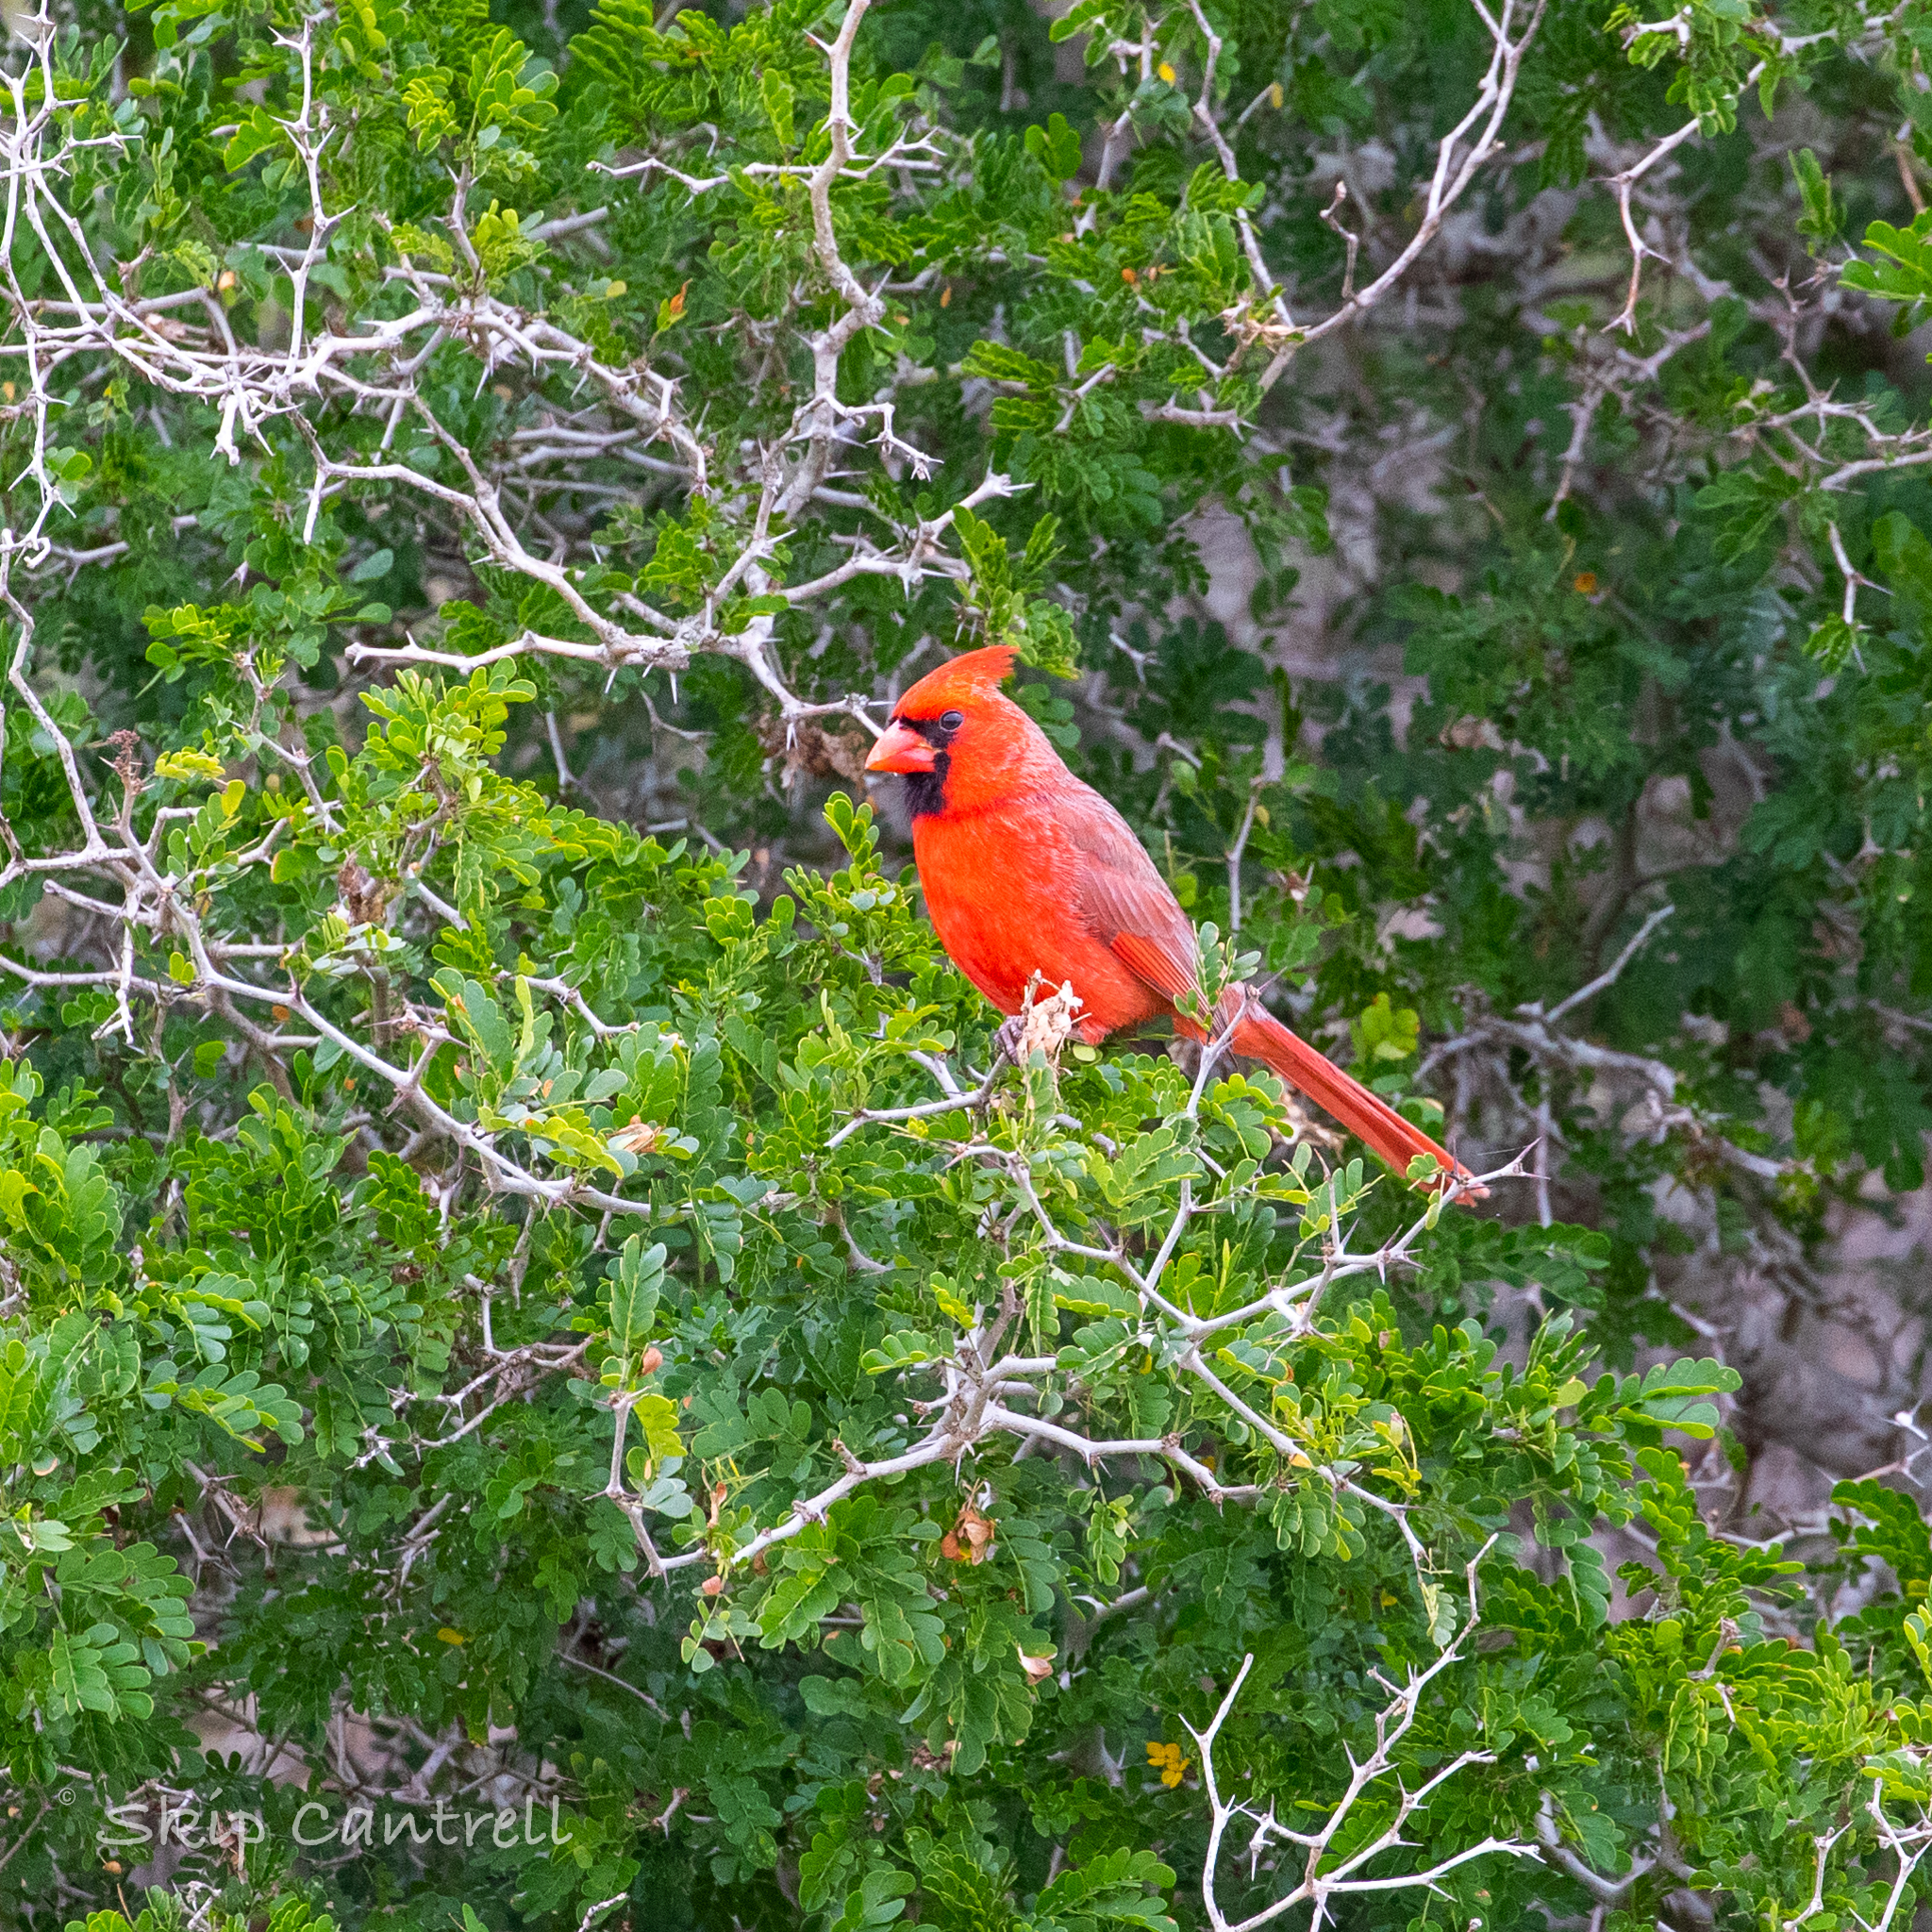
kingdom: Animalia
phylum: Chordata
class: Aves
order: Passeriformes
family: Cardinalidae
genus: Cardinalis
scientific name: Cardinalis cardinalis
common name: Northern cardinal
